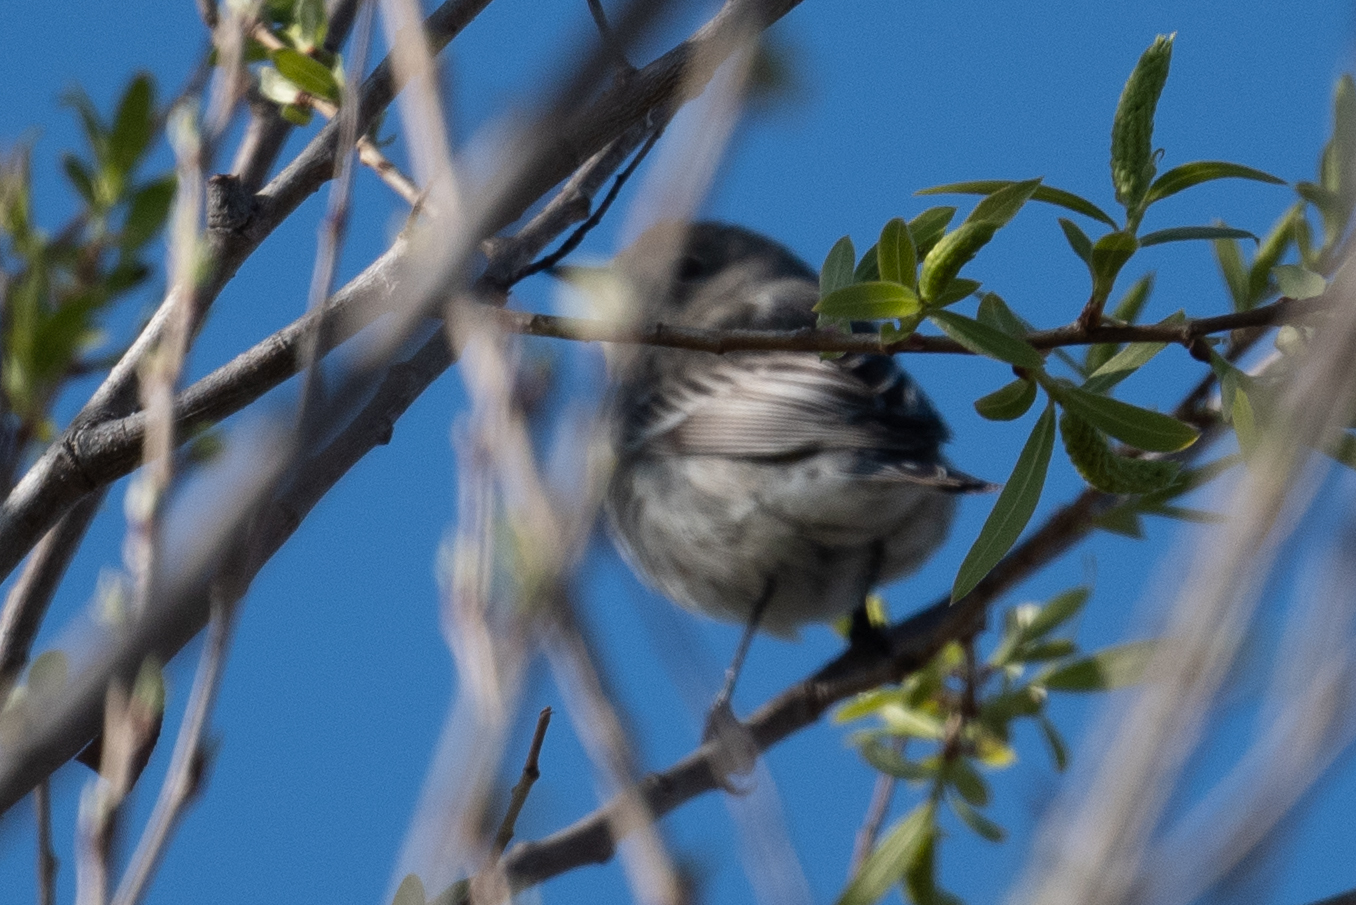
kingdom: Animalia
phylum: Chordata
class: Aves
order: Passeriformes
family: Parulidae
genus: Setophaga
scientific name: Setophaga coronata
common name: Myrtle warbler
